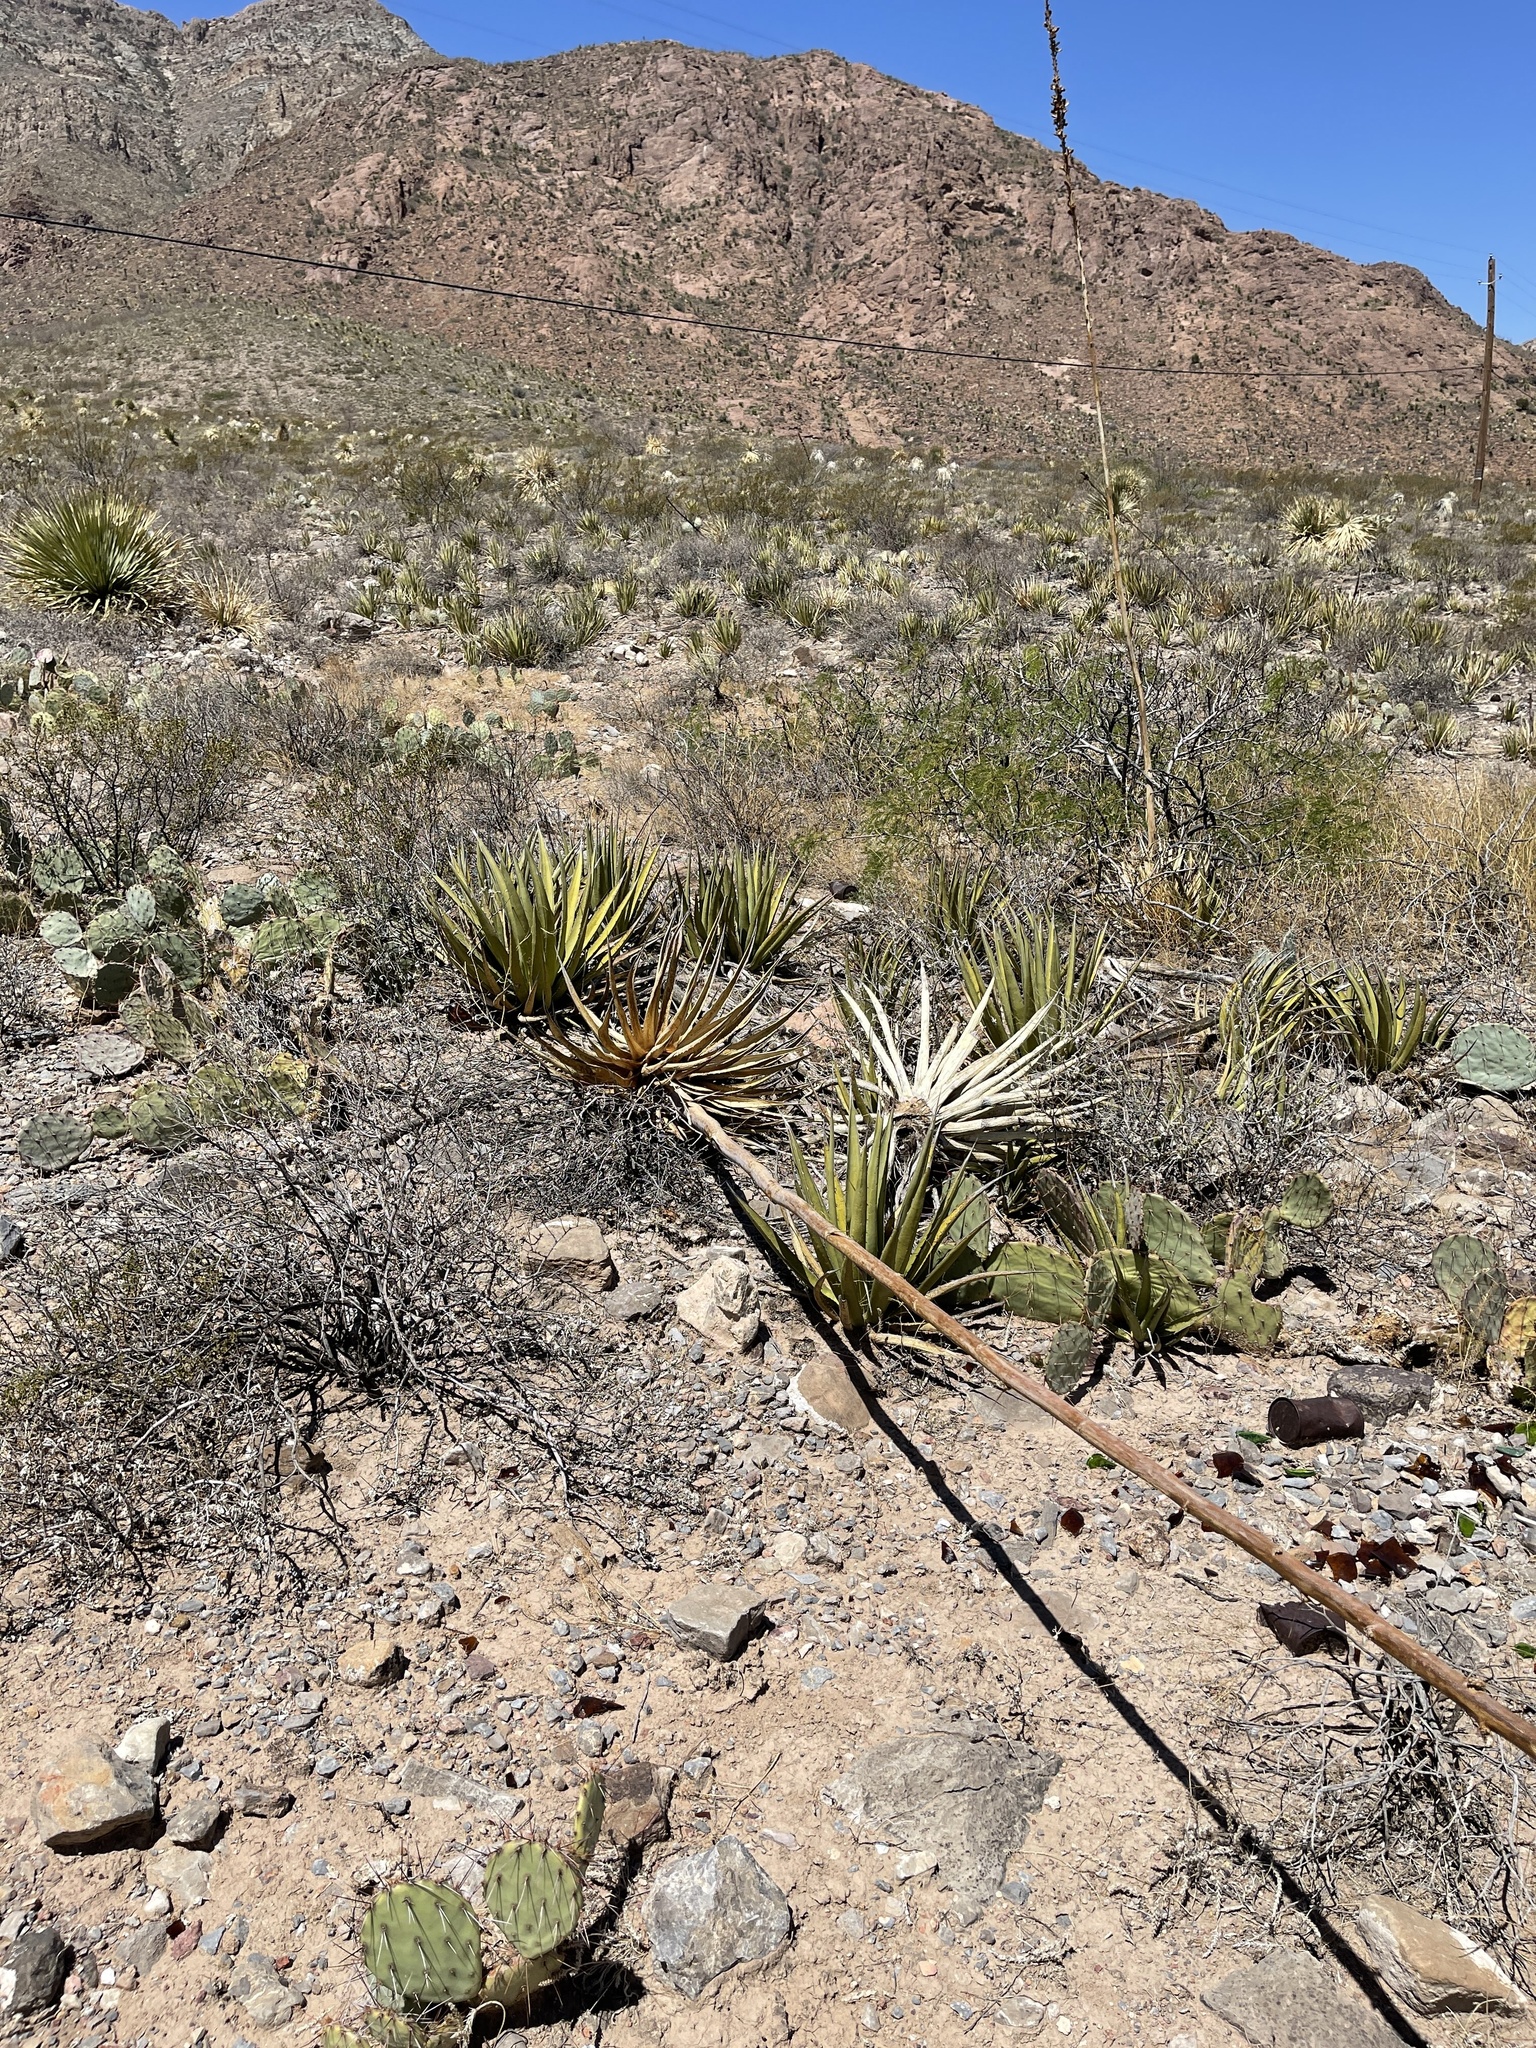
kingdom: Plantae
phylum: Tracheophyta
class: Liliopsida
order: Asparagales
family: Asparagaceae
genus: Agave
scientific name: Agave lechuguilla
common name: Lecheguilla agave
